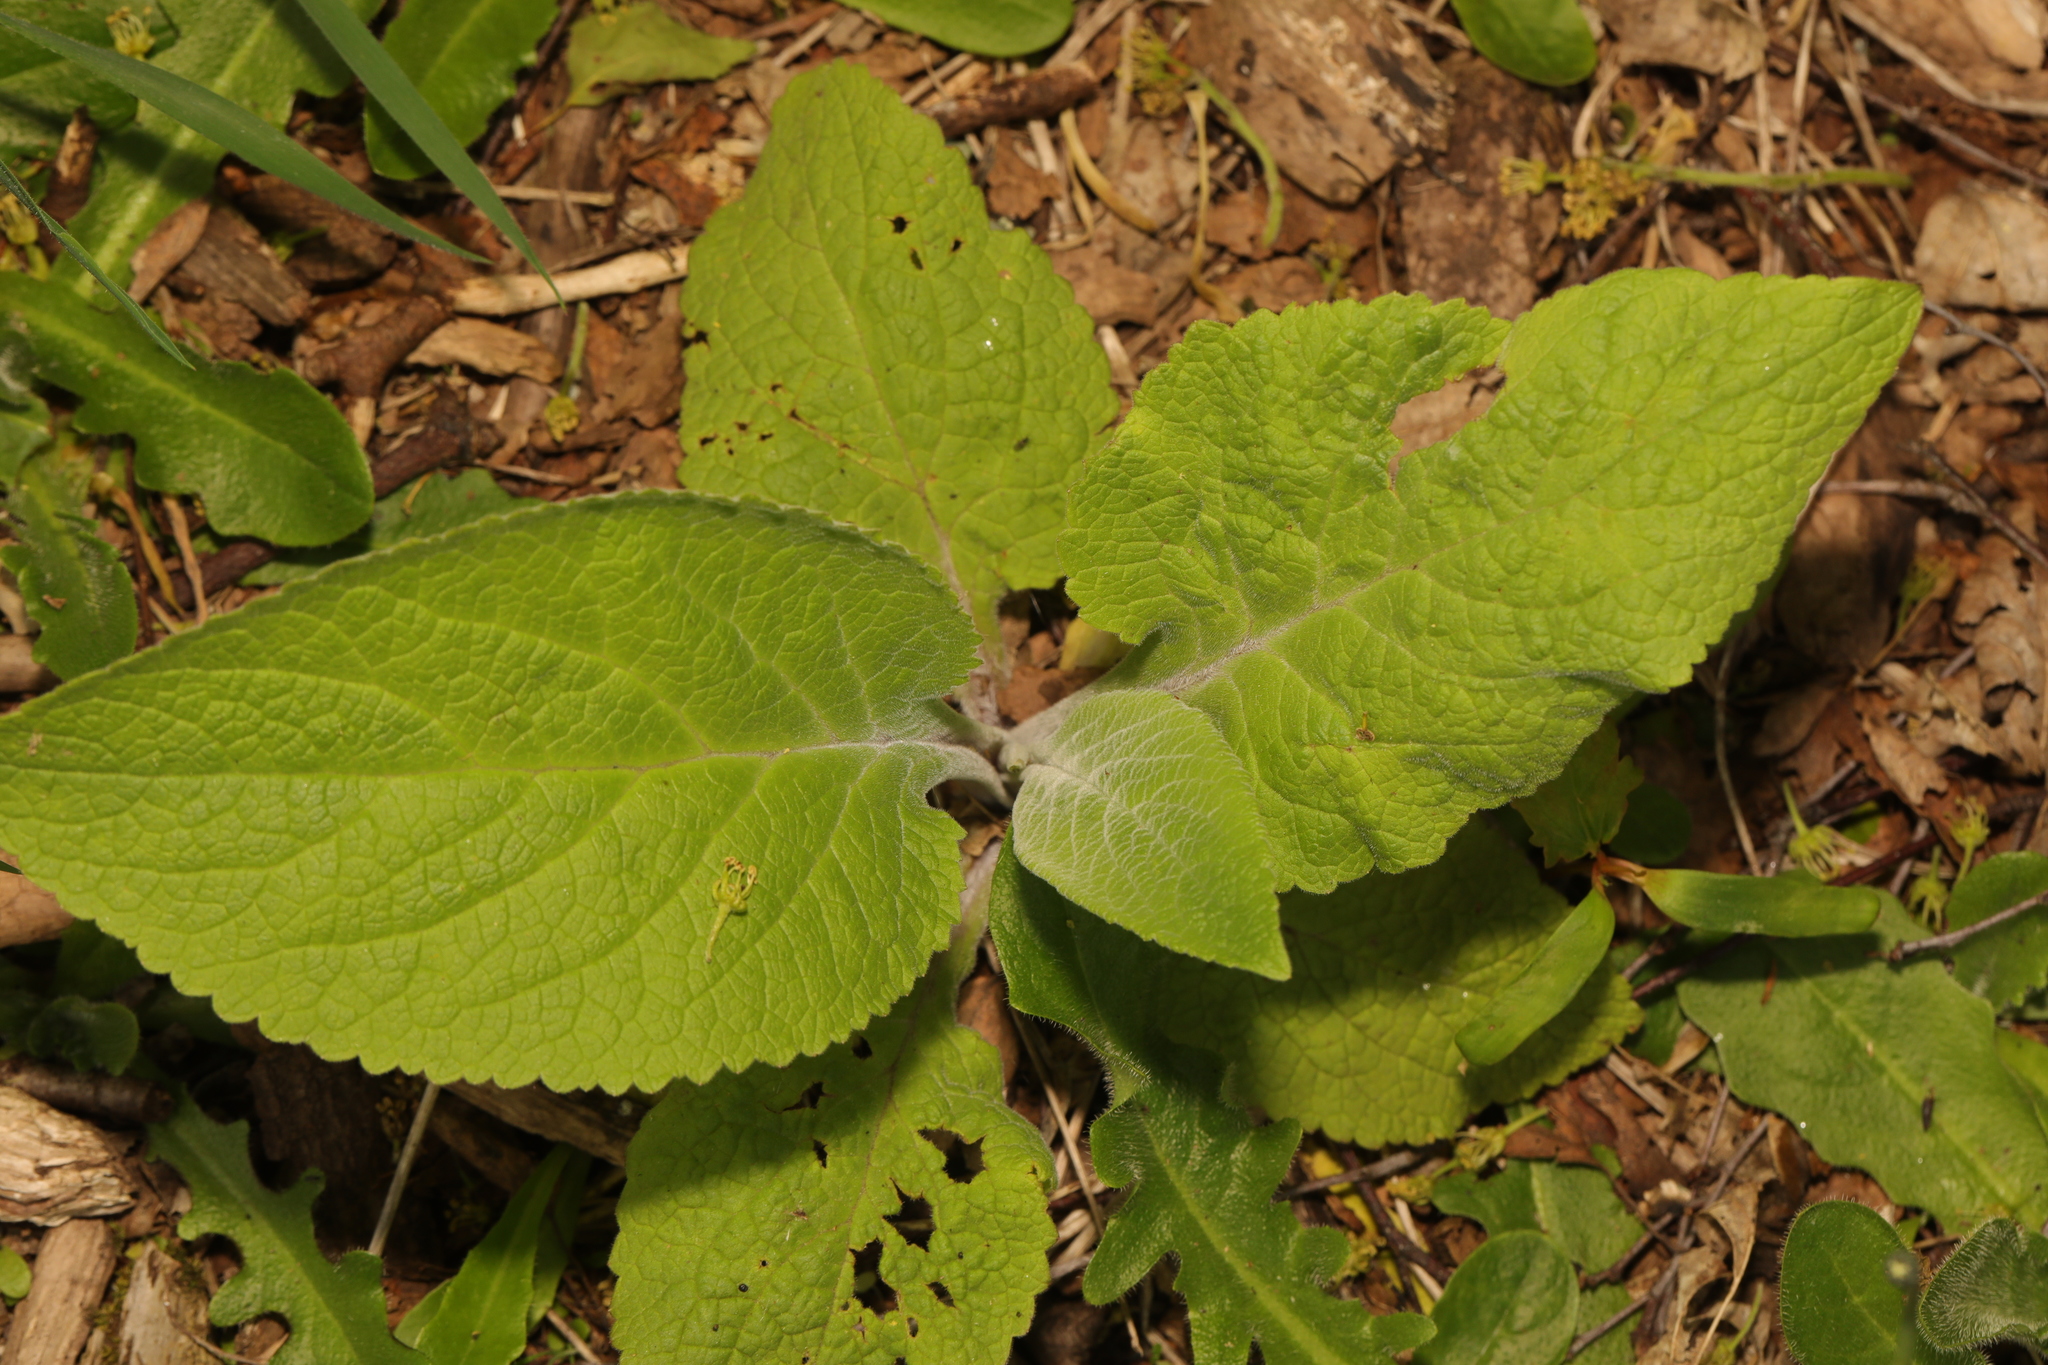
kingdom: Plantae
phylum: Tracheophyta
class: Magnoliopsida
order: Lamiales
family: Plantaginaceae
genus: Digitalis
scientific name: Digitalis purpurea
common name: Foxglove
